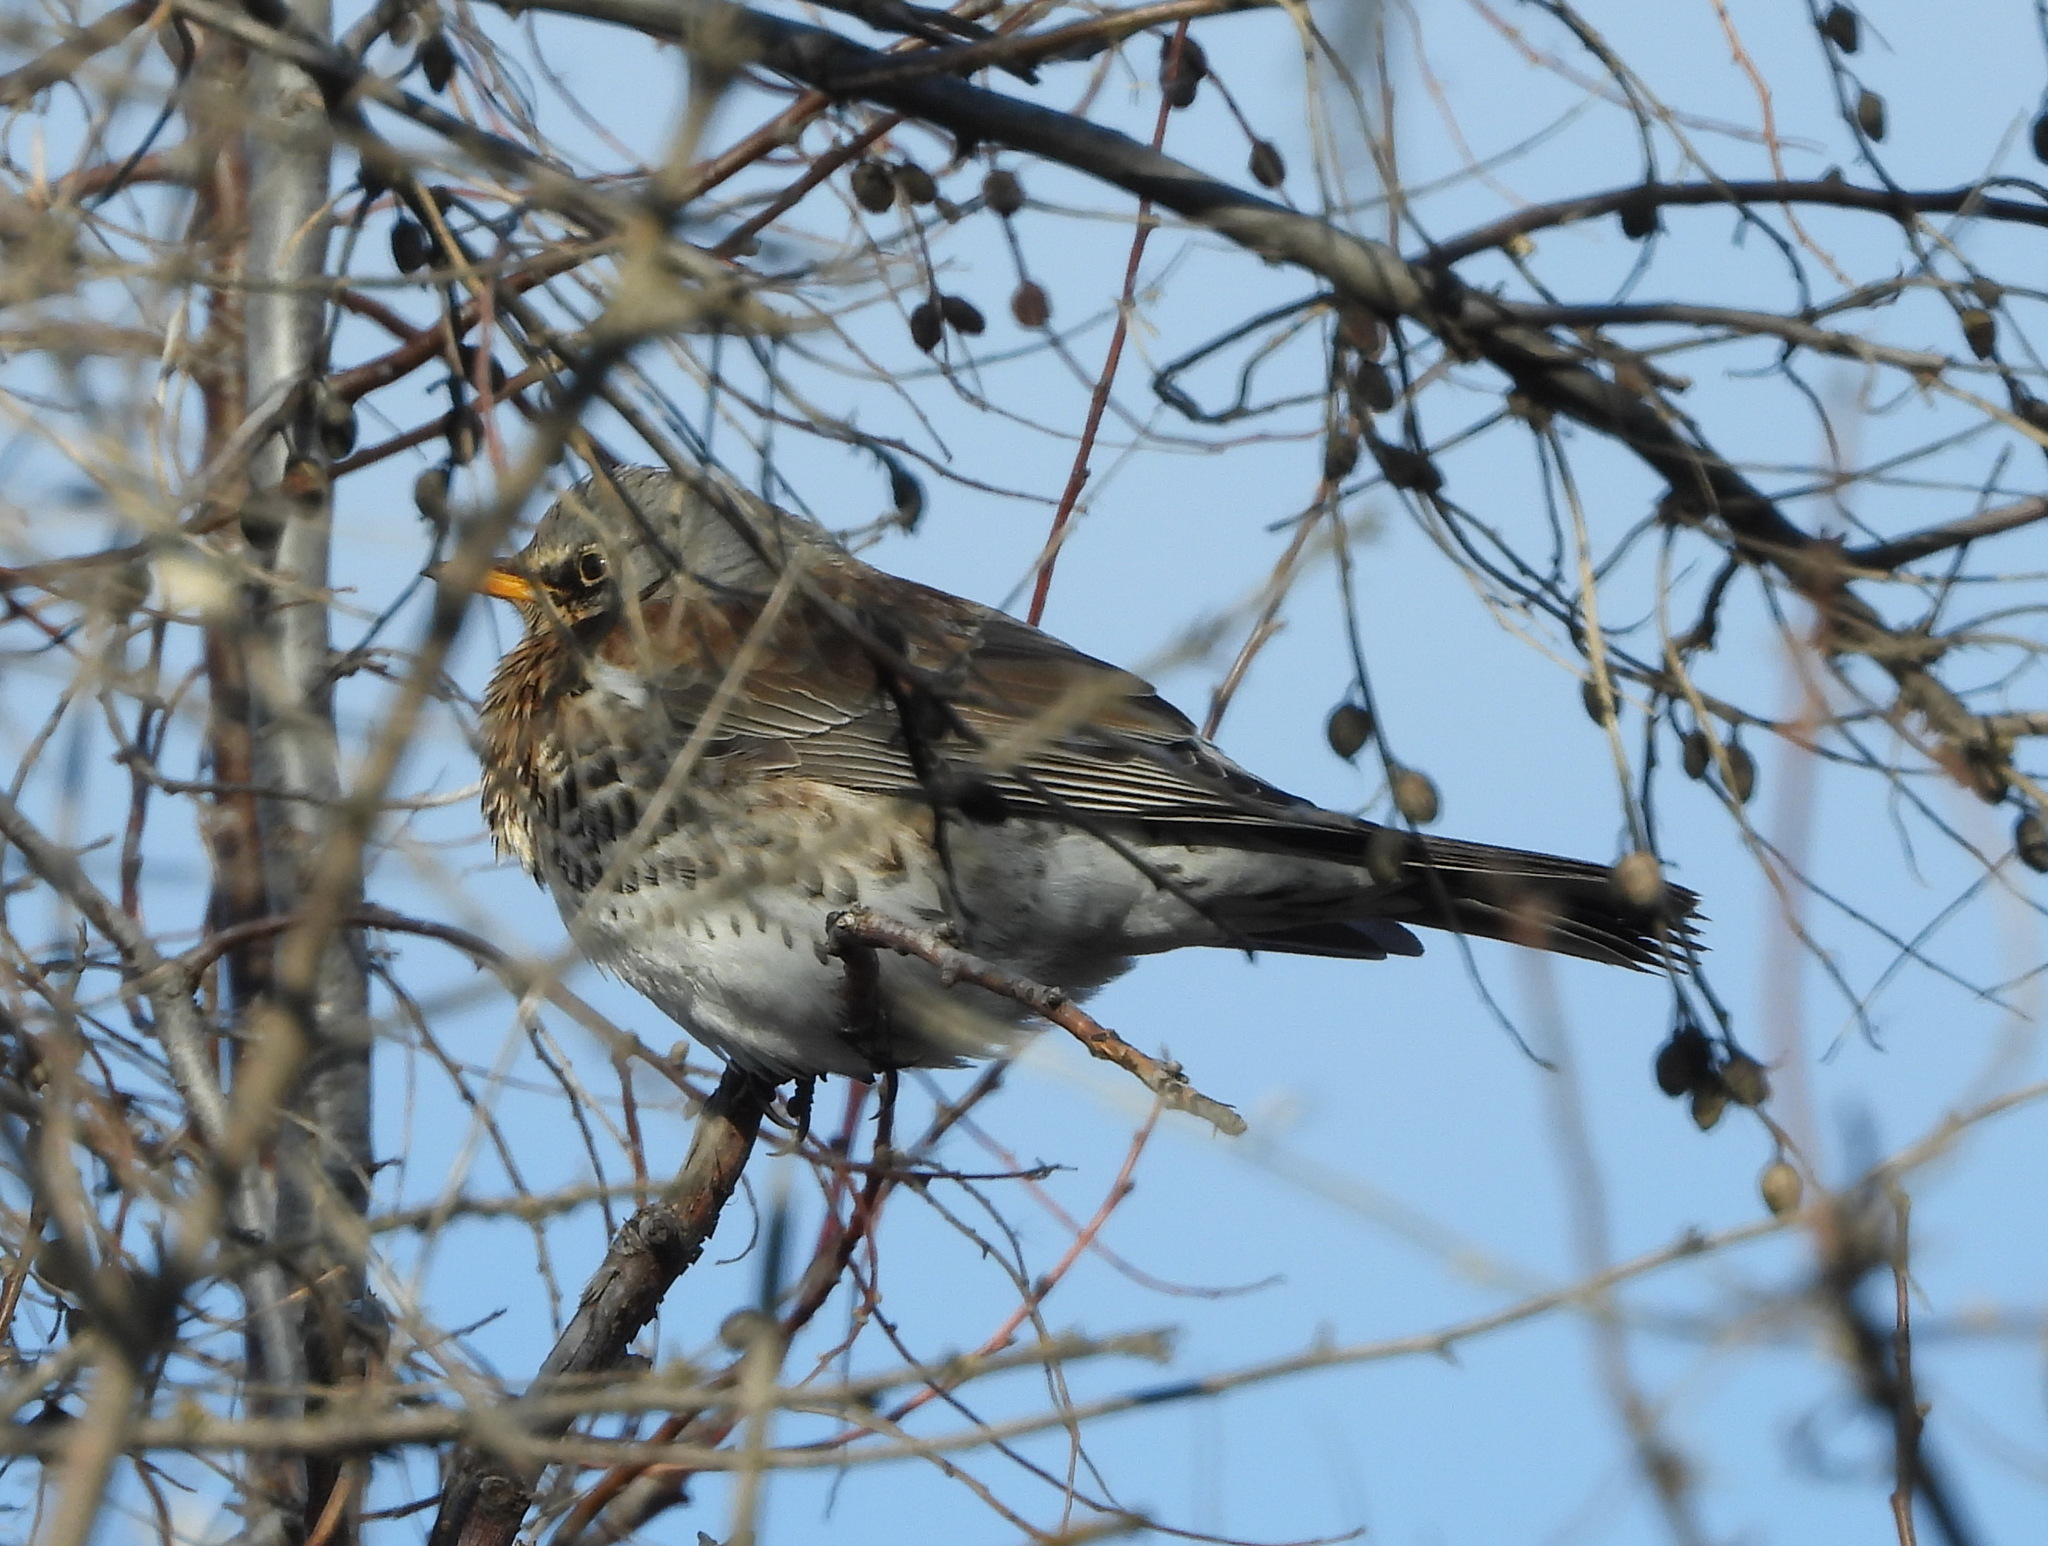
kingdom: Animalia
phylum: Chordata
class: Aves
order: Passeriformes
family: Turdidae
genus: Turdus
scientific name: Turdus pilaris
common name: Fieldfare
